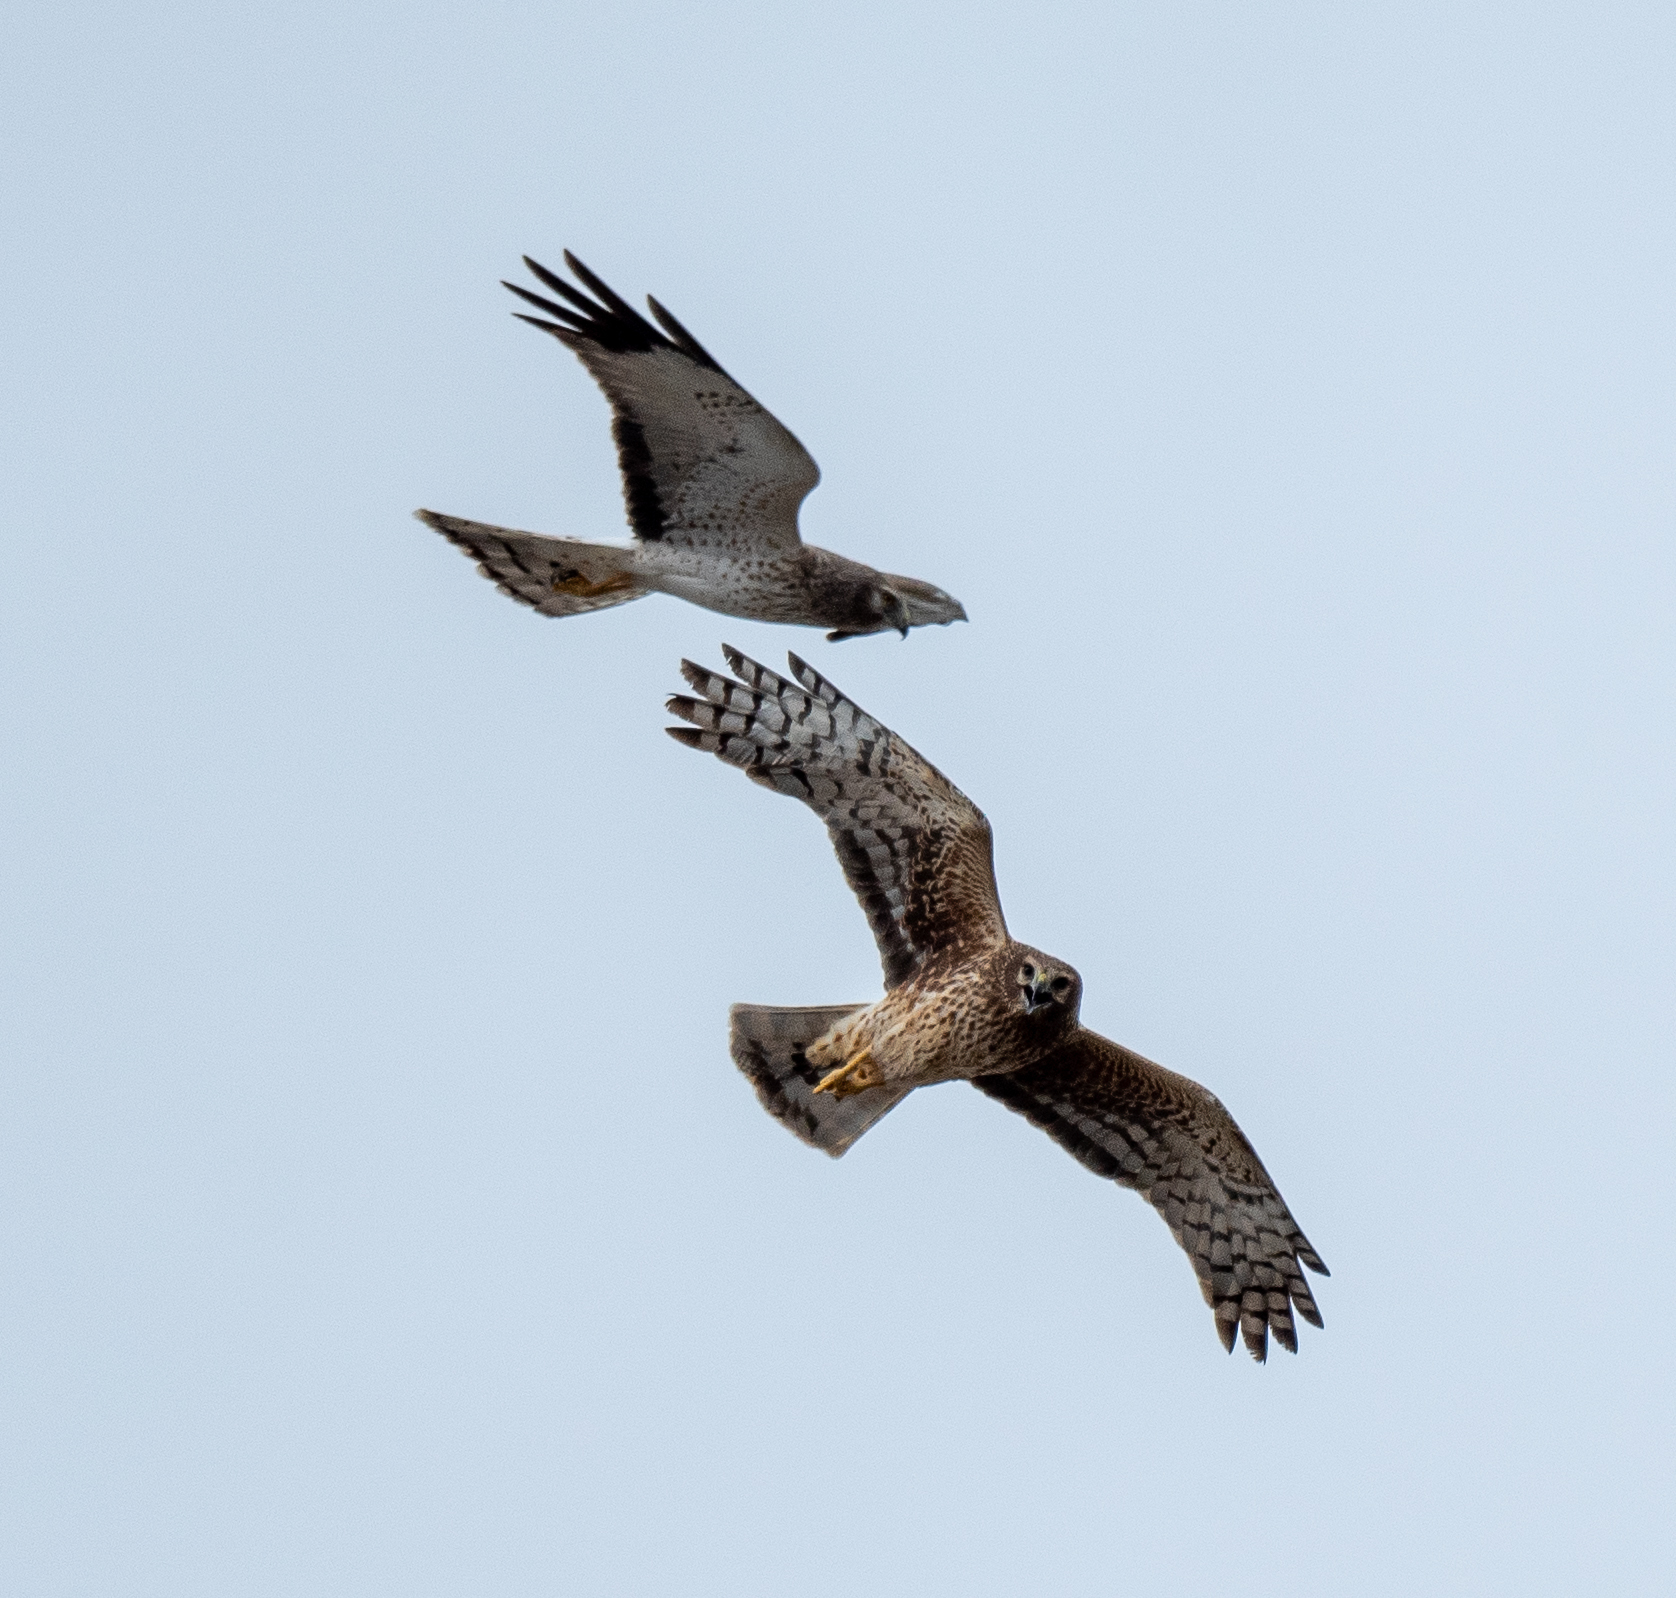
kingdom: Animalia
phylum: Chordata
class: Aves
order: Accipitriformes
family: Accipitridae
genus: Circus
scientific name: Circus cyaneus
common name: Hen harrier
